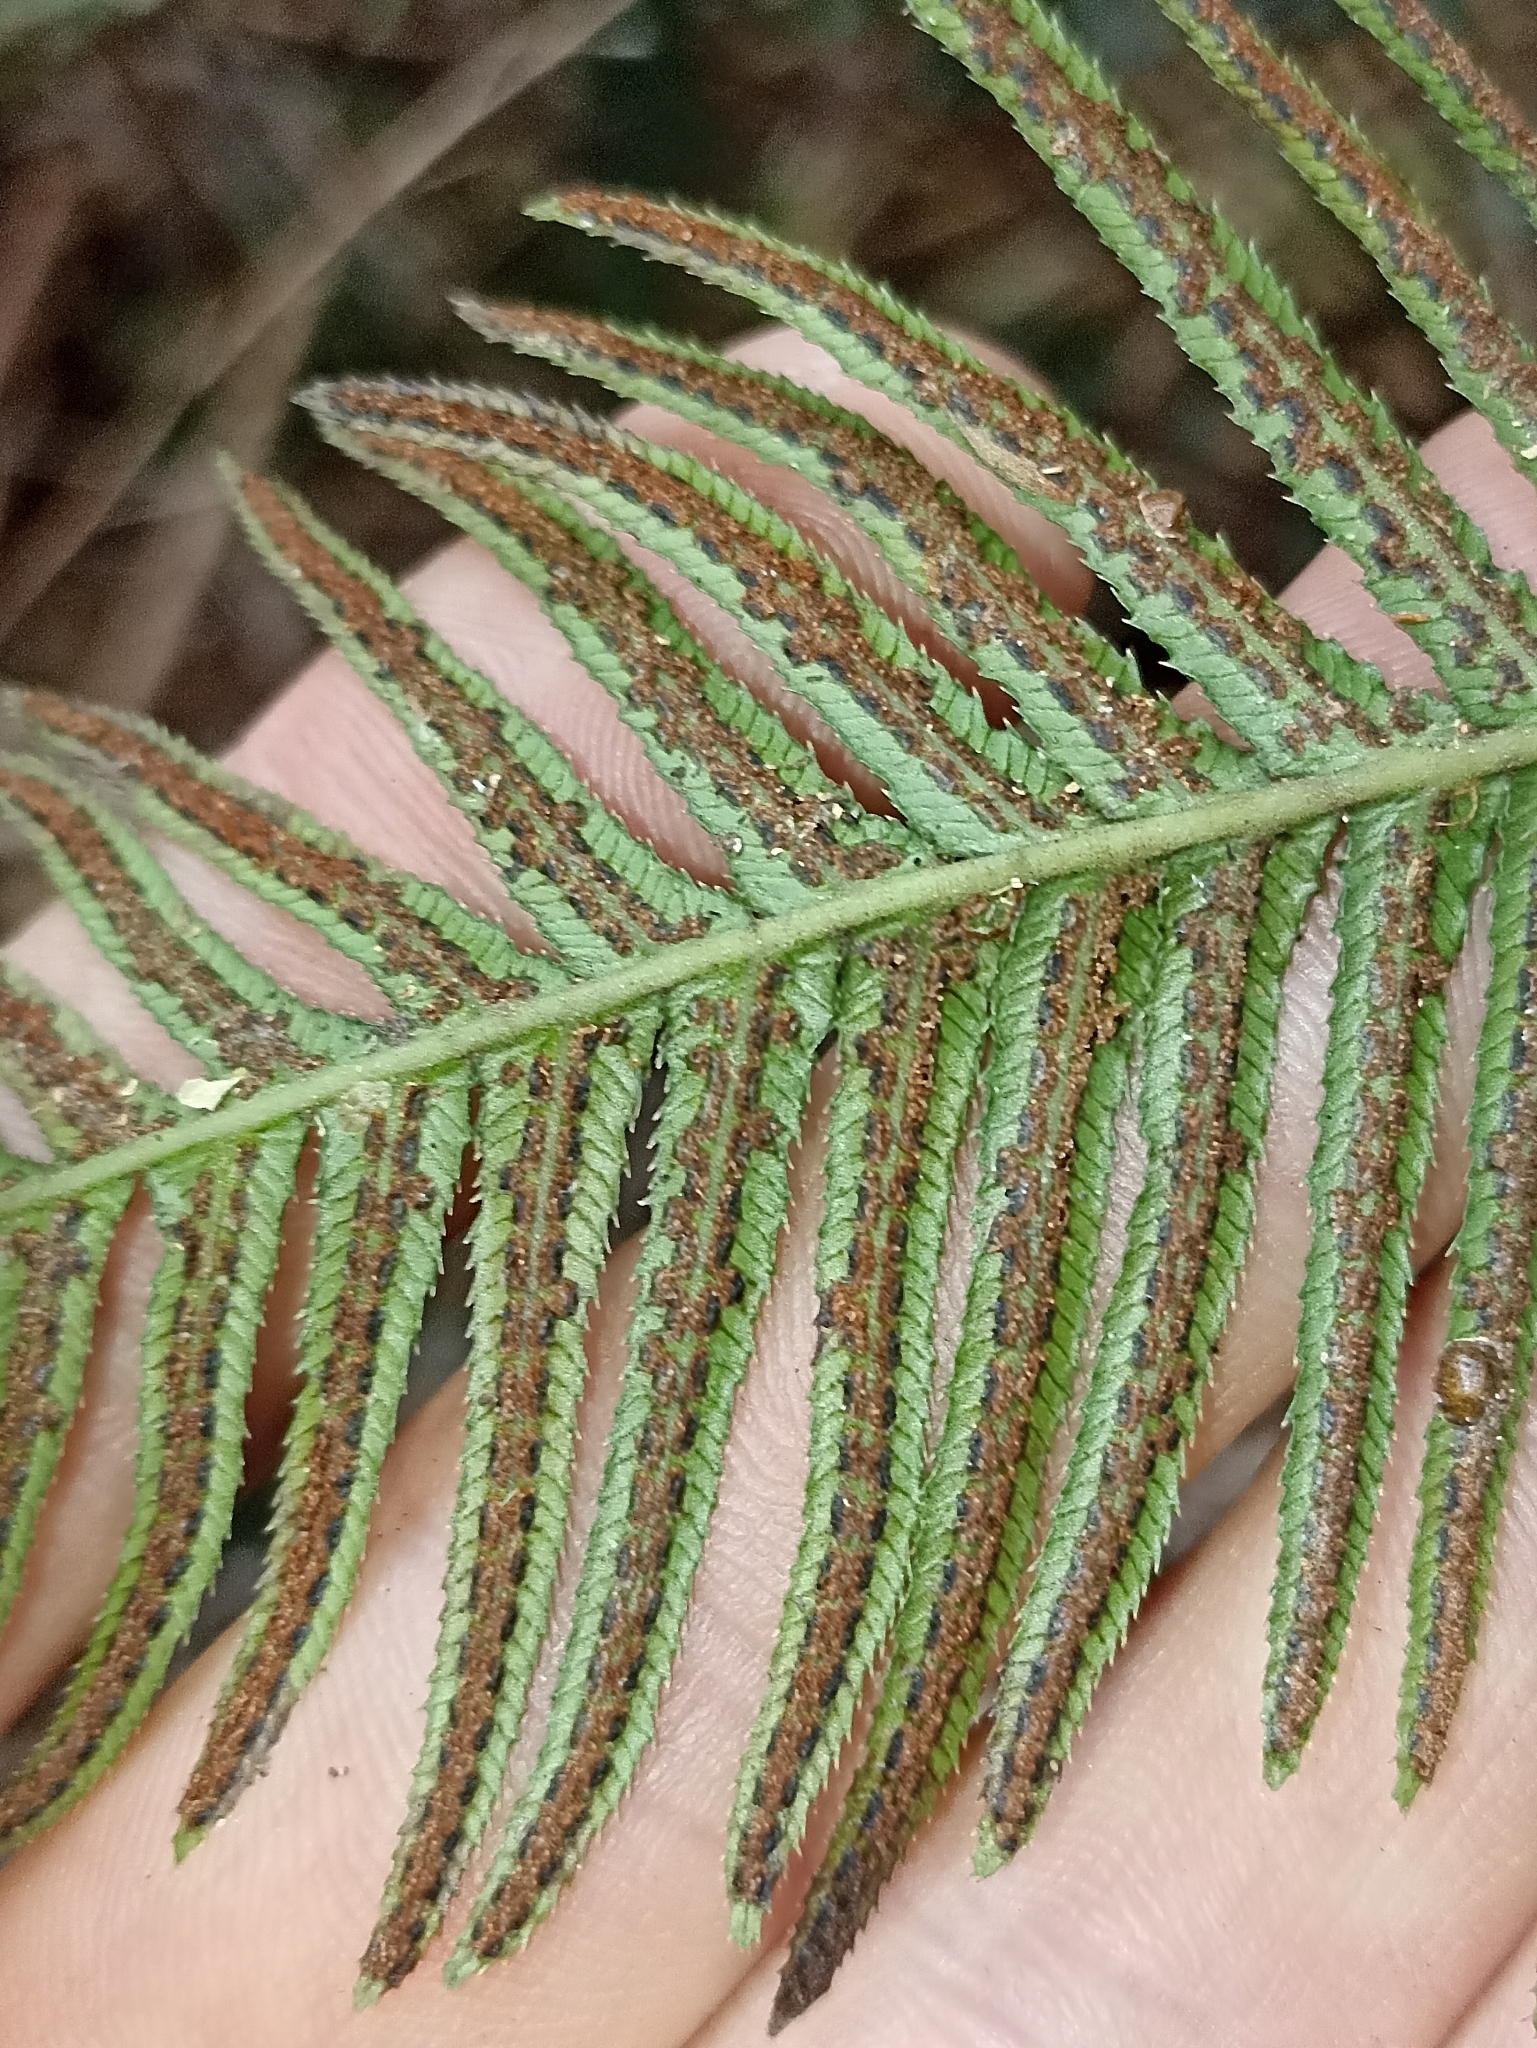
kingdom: Plantae
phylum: Tracheophyta
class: Polypodiopsida
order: Polypodiales
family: Blechnaceae
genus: Doodia
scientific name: Doodia australis
